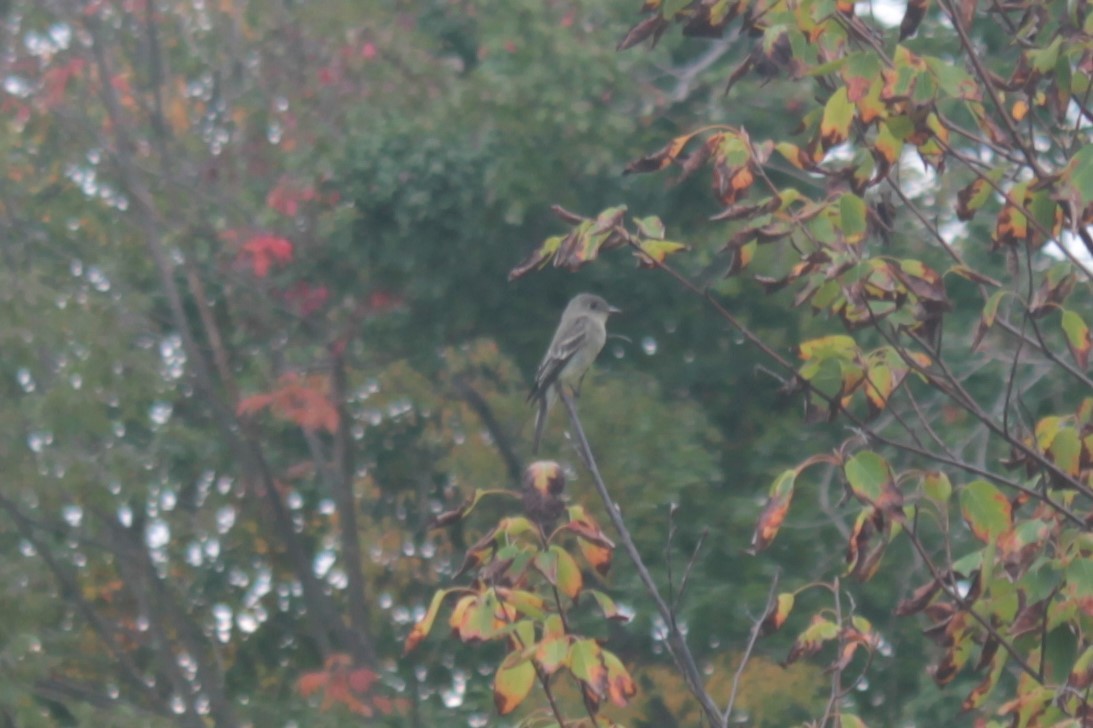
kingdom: Animalia
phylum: Chordata
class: Aves
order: Passeriformes
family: Tyrannidae
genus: Contopus
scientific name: Contopus virens
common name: Eastern wood-pewee
